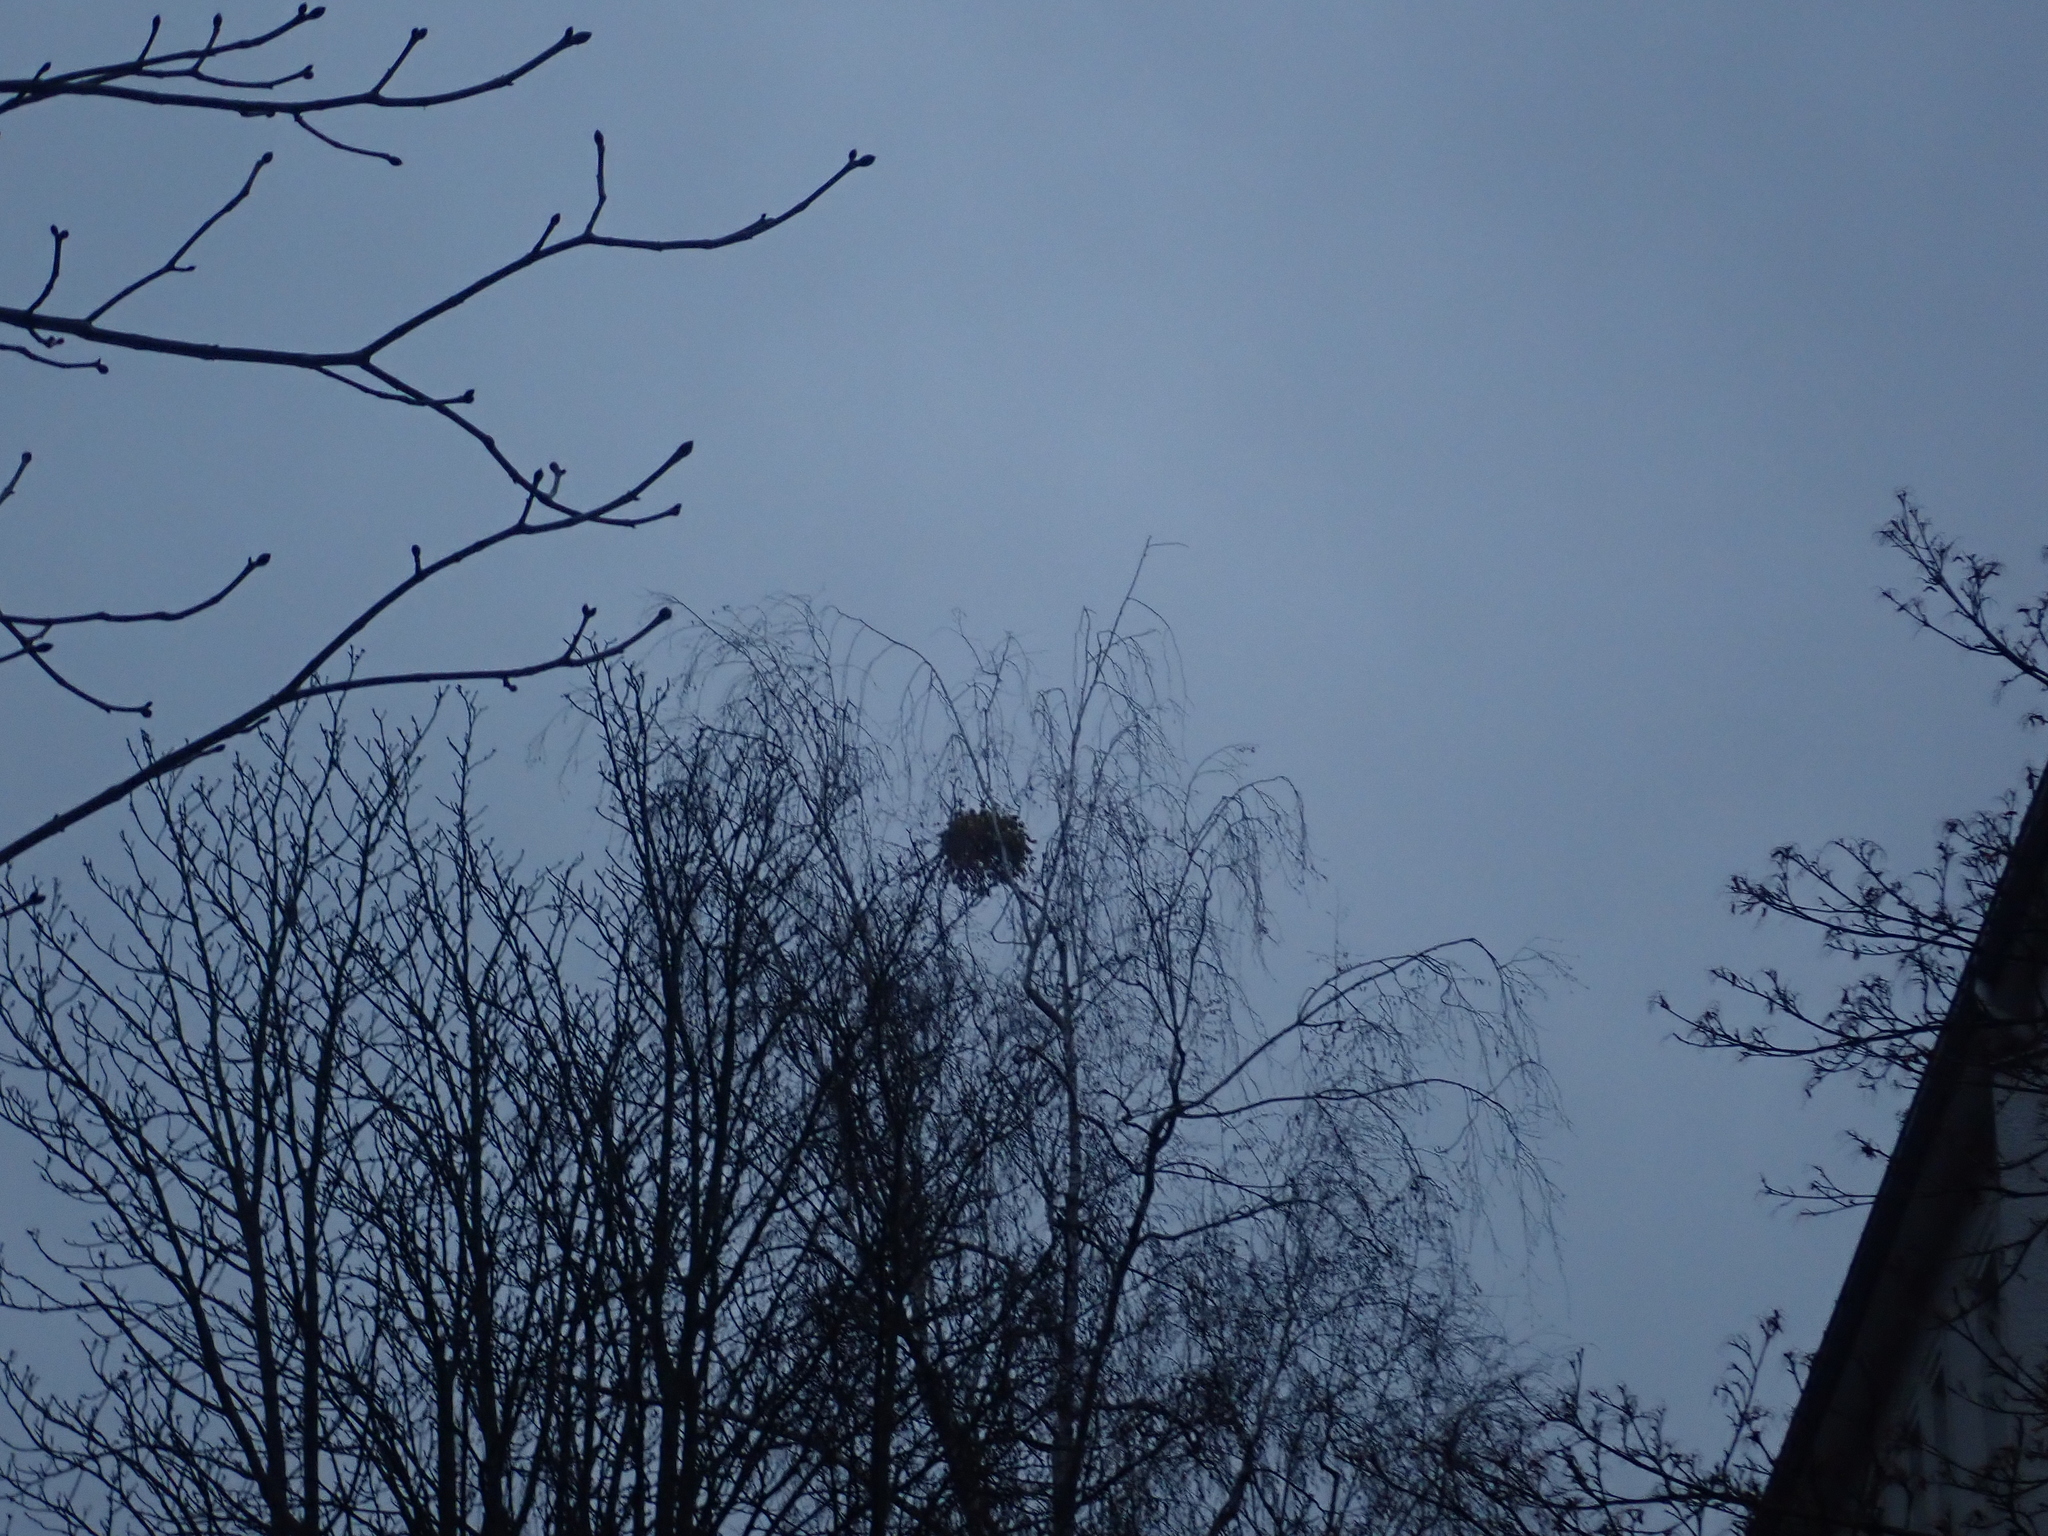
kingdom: Plantae
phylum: Tracheophyta
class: Magnoliopsida
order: Santalales
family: Viscaceae
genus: Viscum
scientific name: Viscum album
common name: Mistletoe
